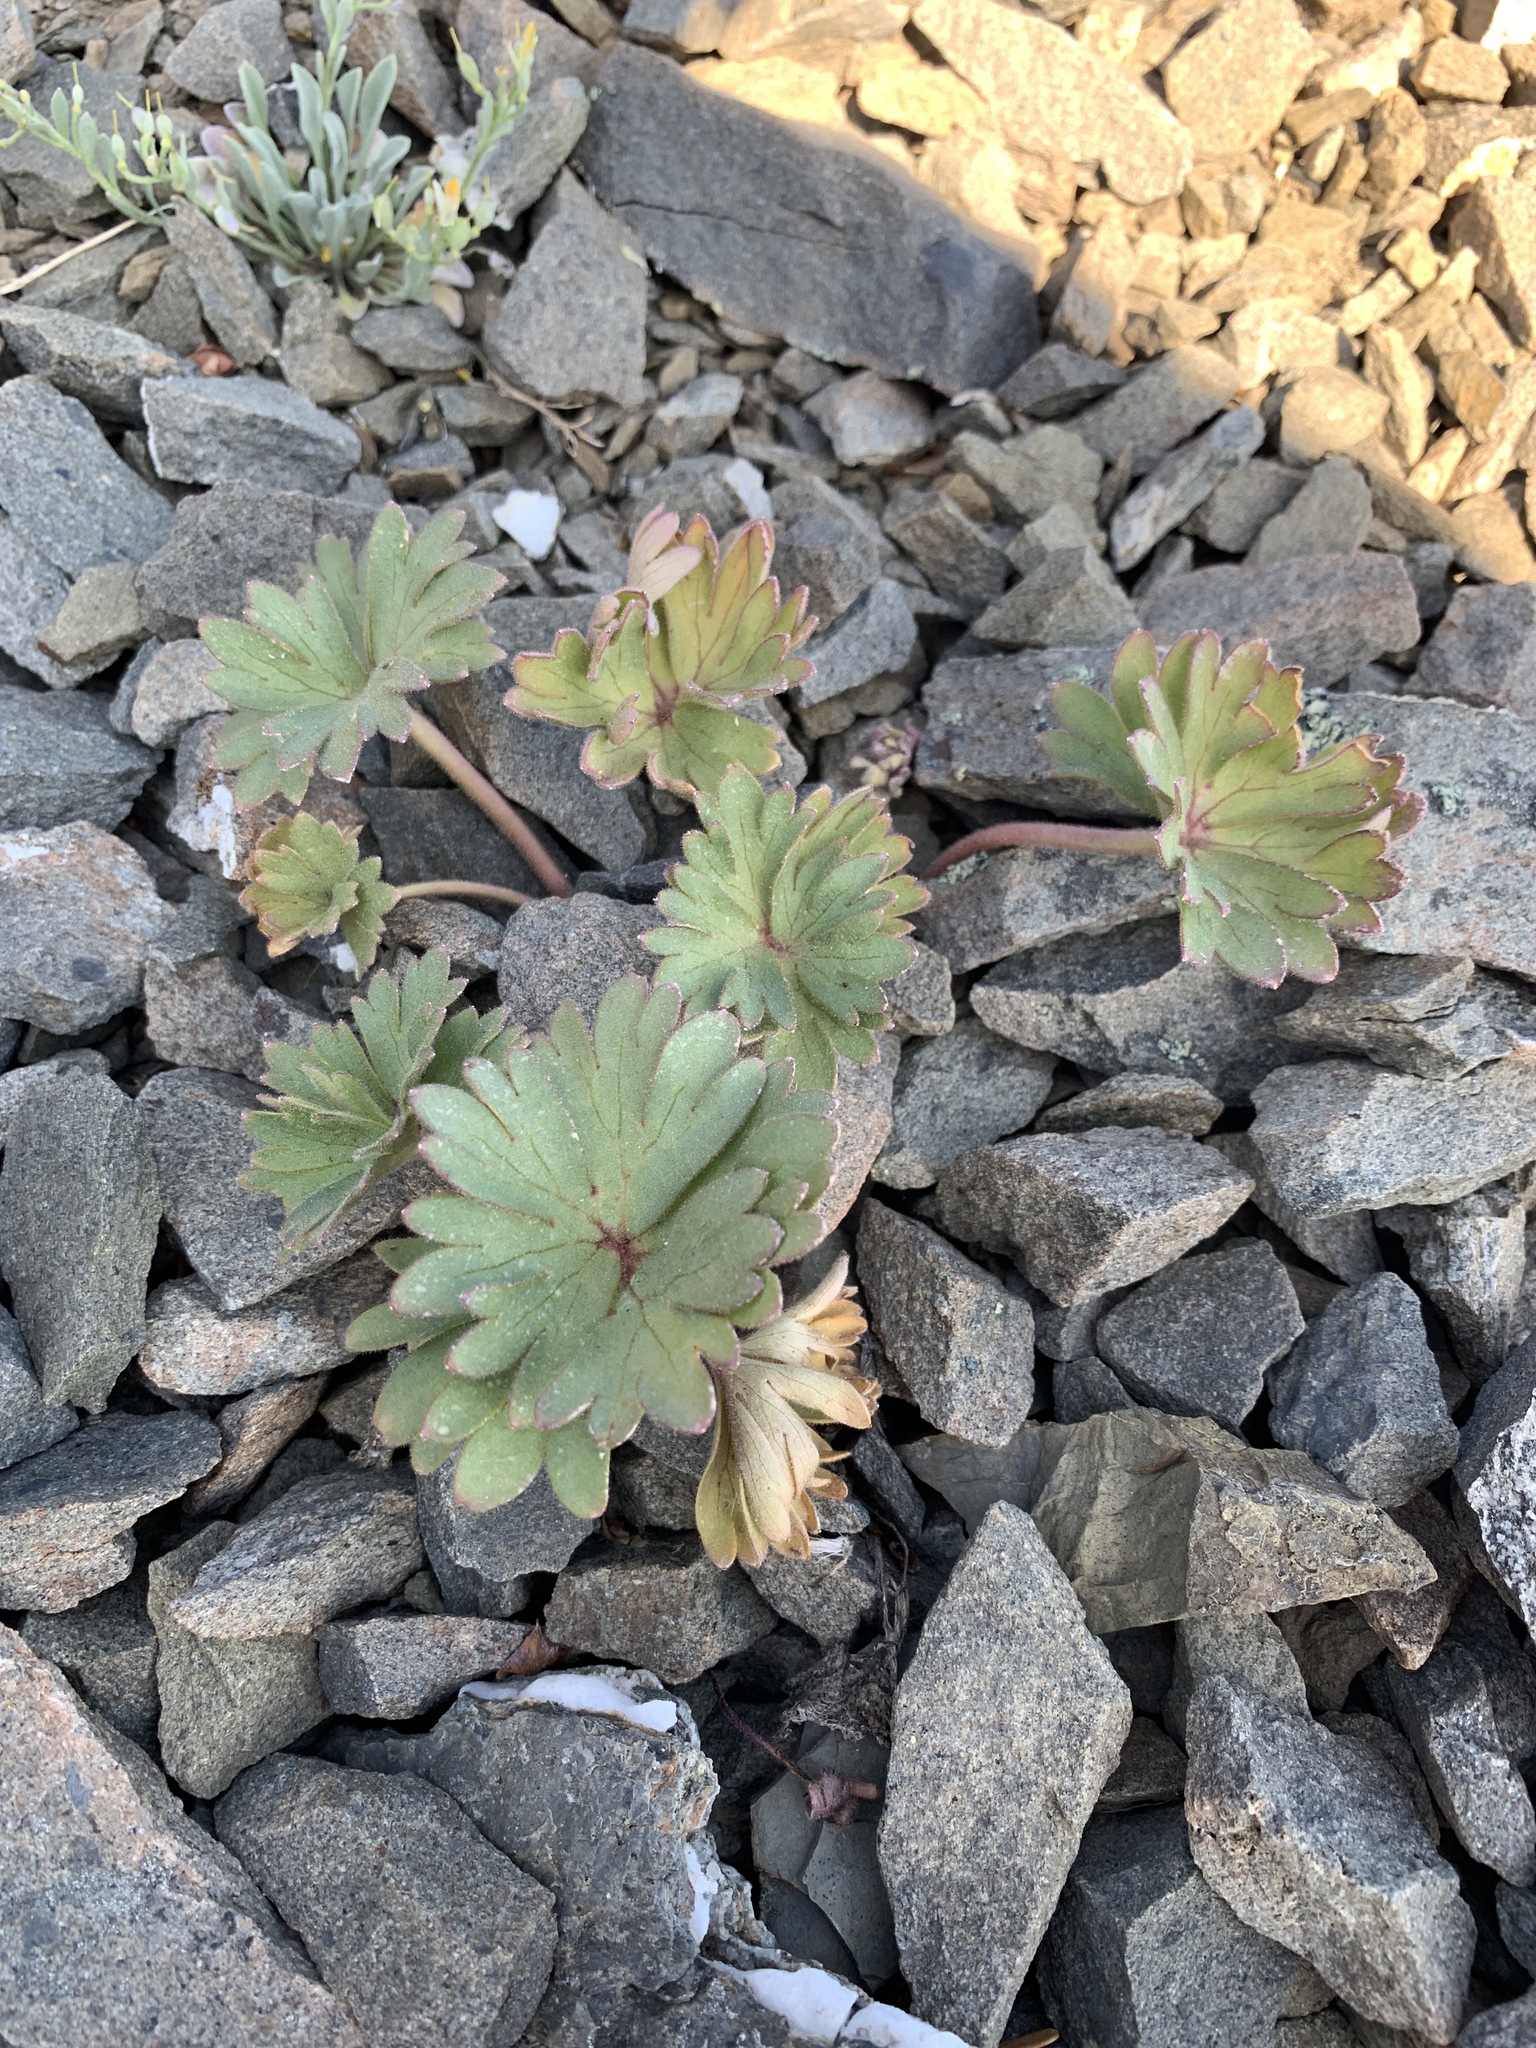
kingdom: Plantae
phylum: Tracheophyta
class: Magnoliopsida
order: Ranunculales
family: Ranunculaceae
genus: Delphinium
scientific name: Delphinium antoninum
